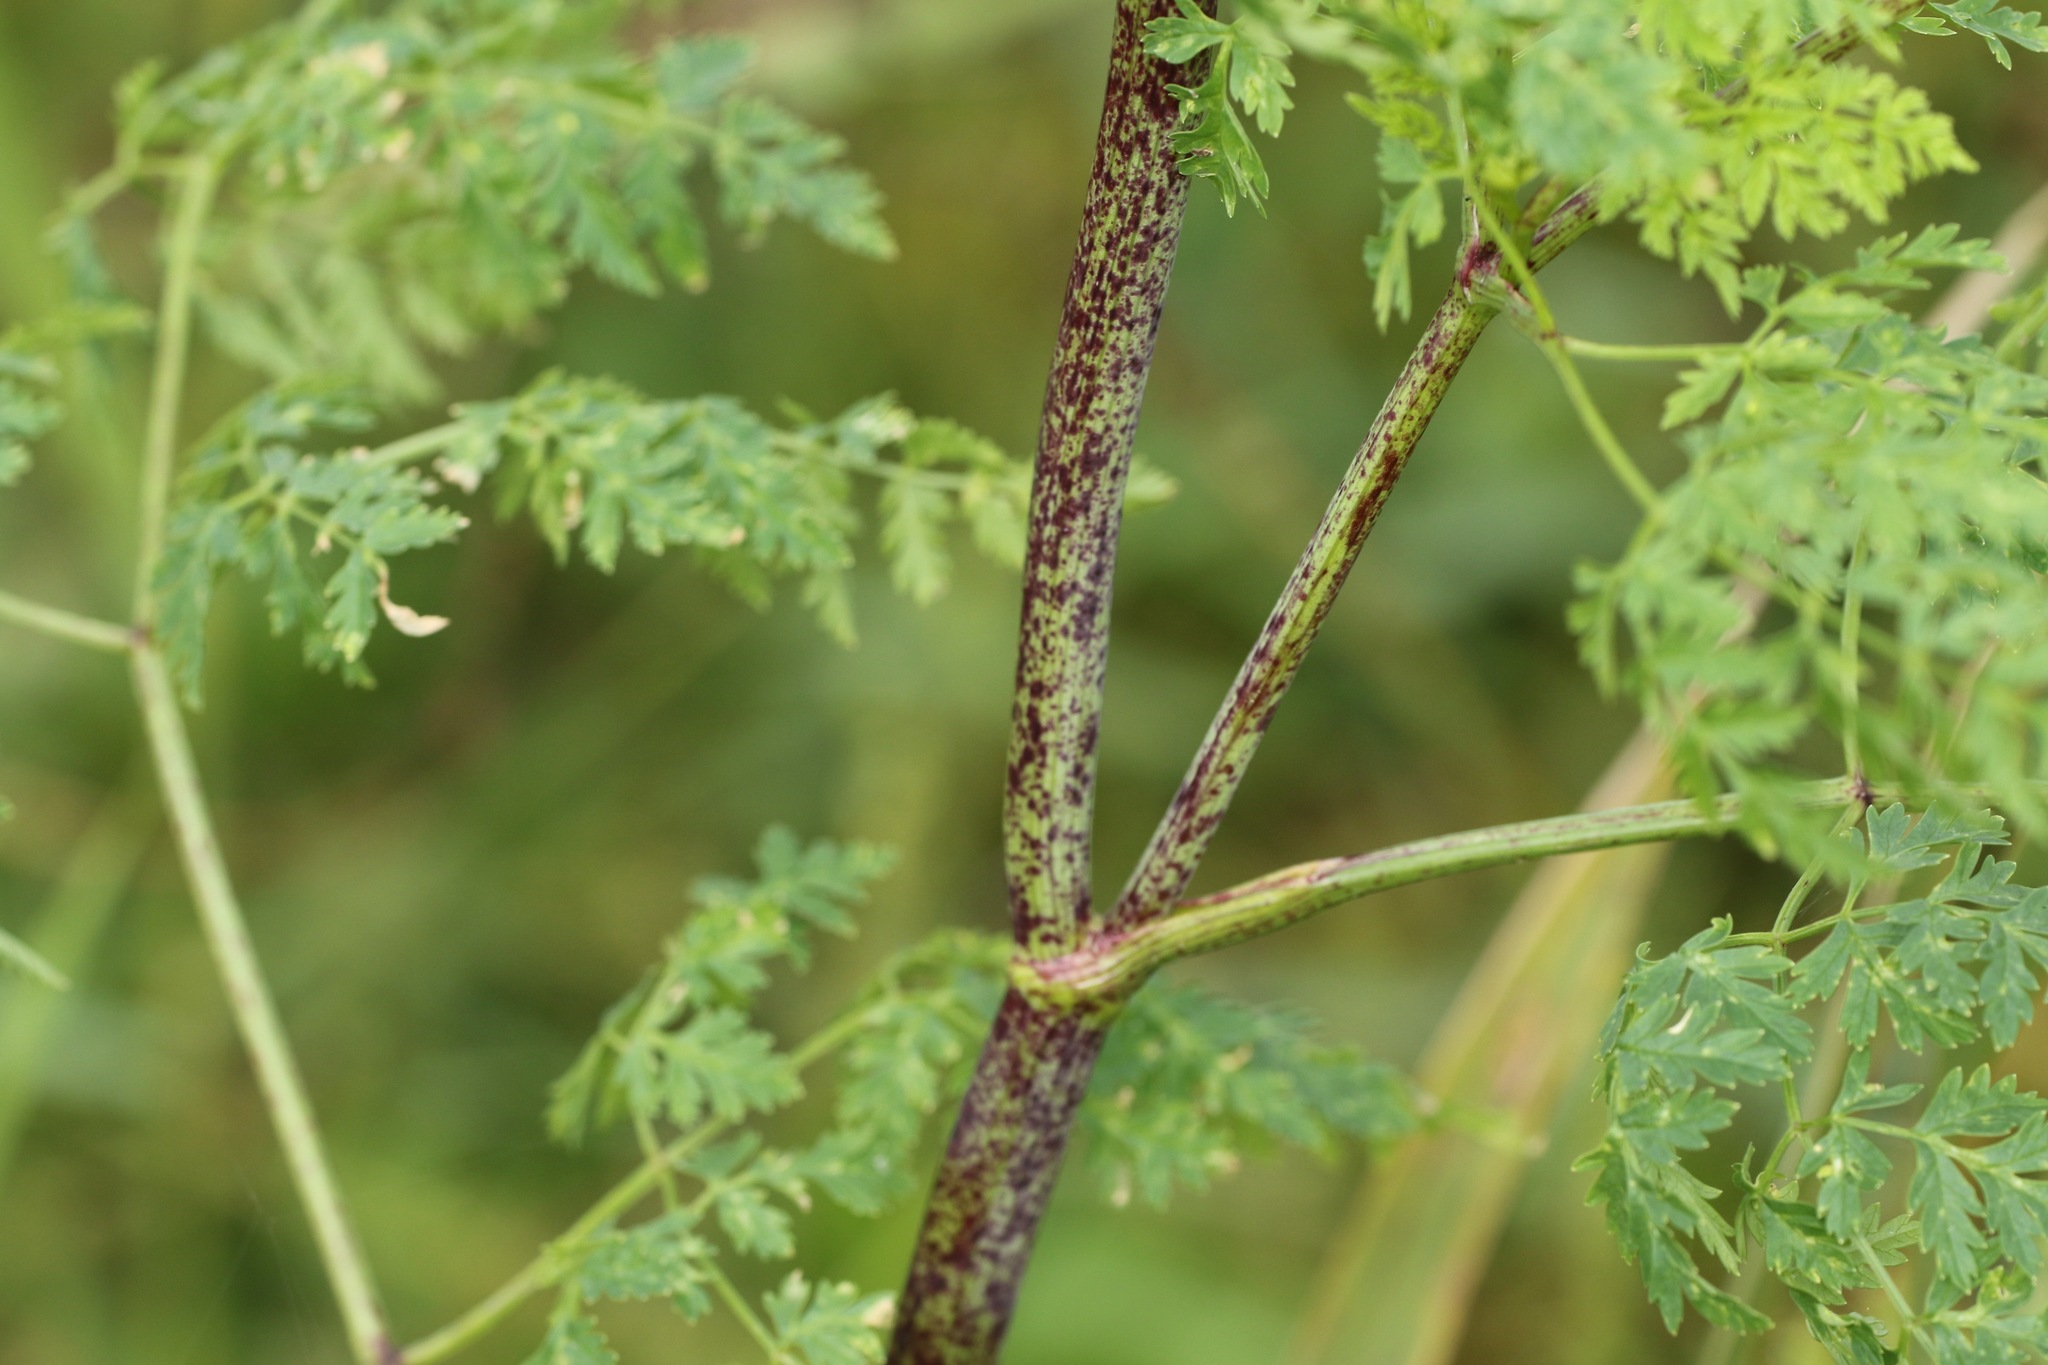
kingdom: Plantae
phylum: Tracheophyta
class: Magnoliopsida
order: Apiales
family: Apiaceae
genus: Conium
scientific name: Conium maculatum
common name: Hemlock
